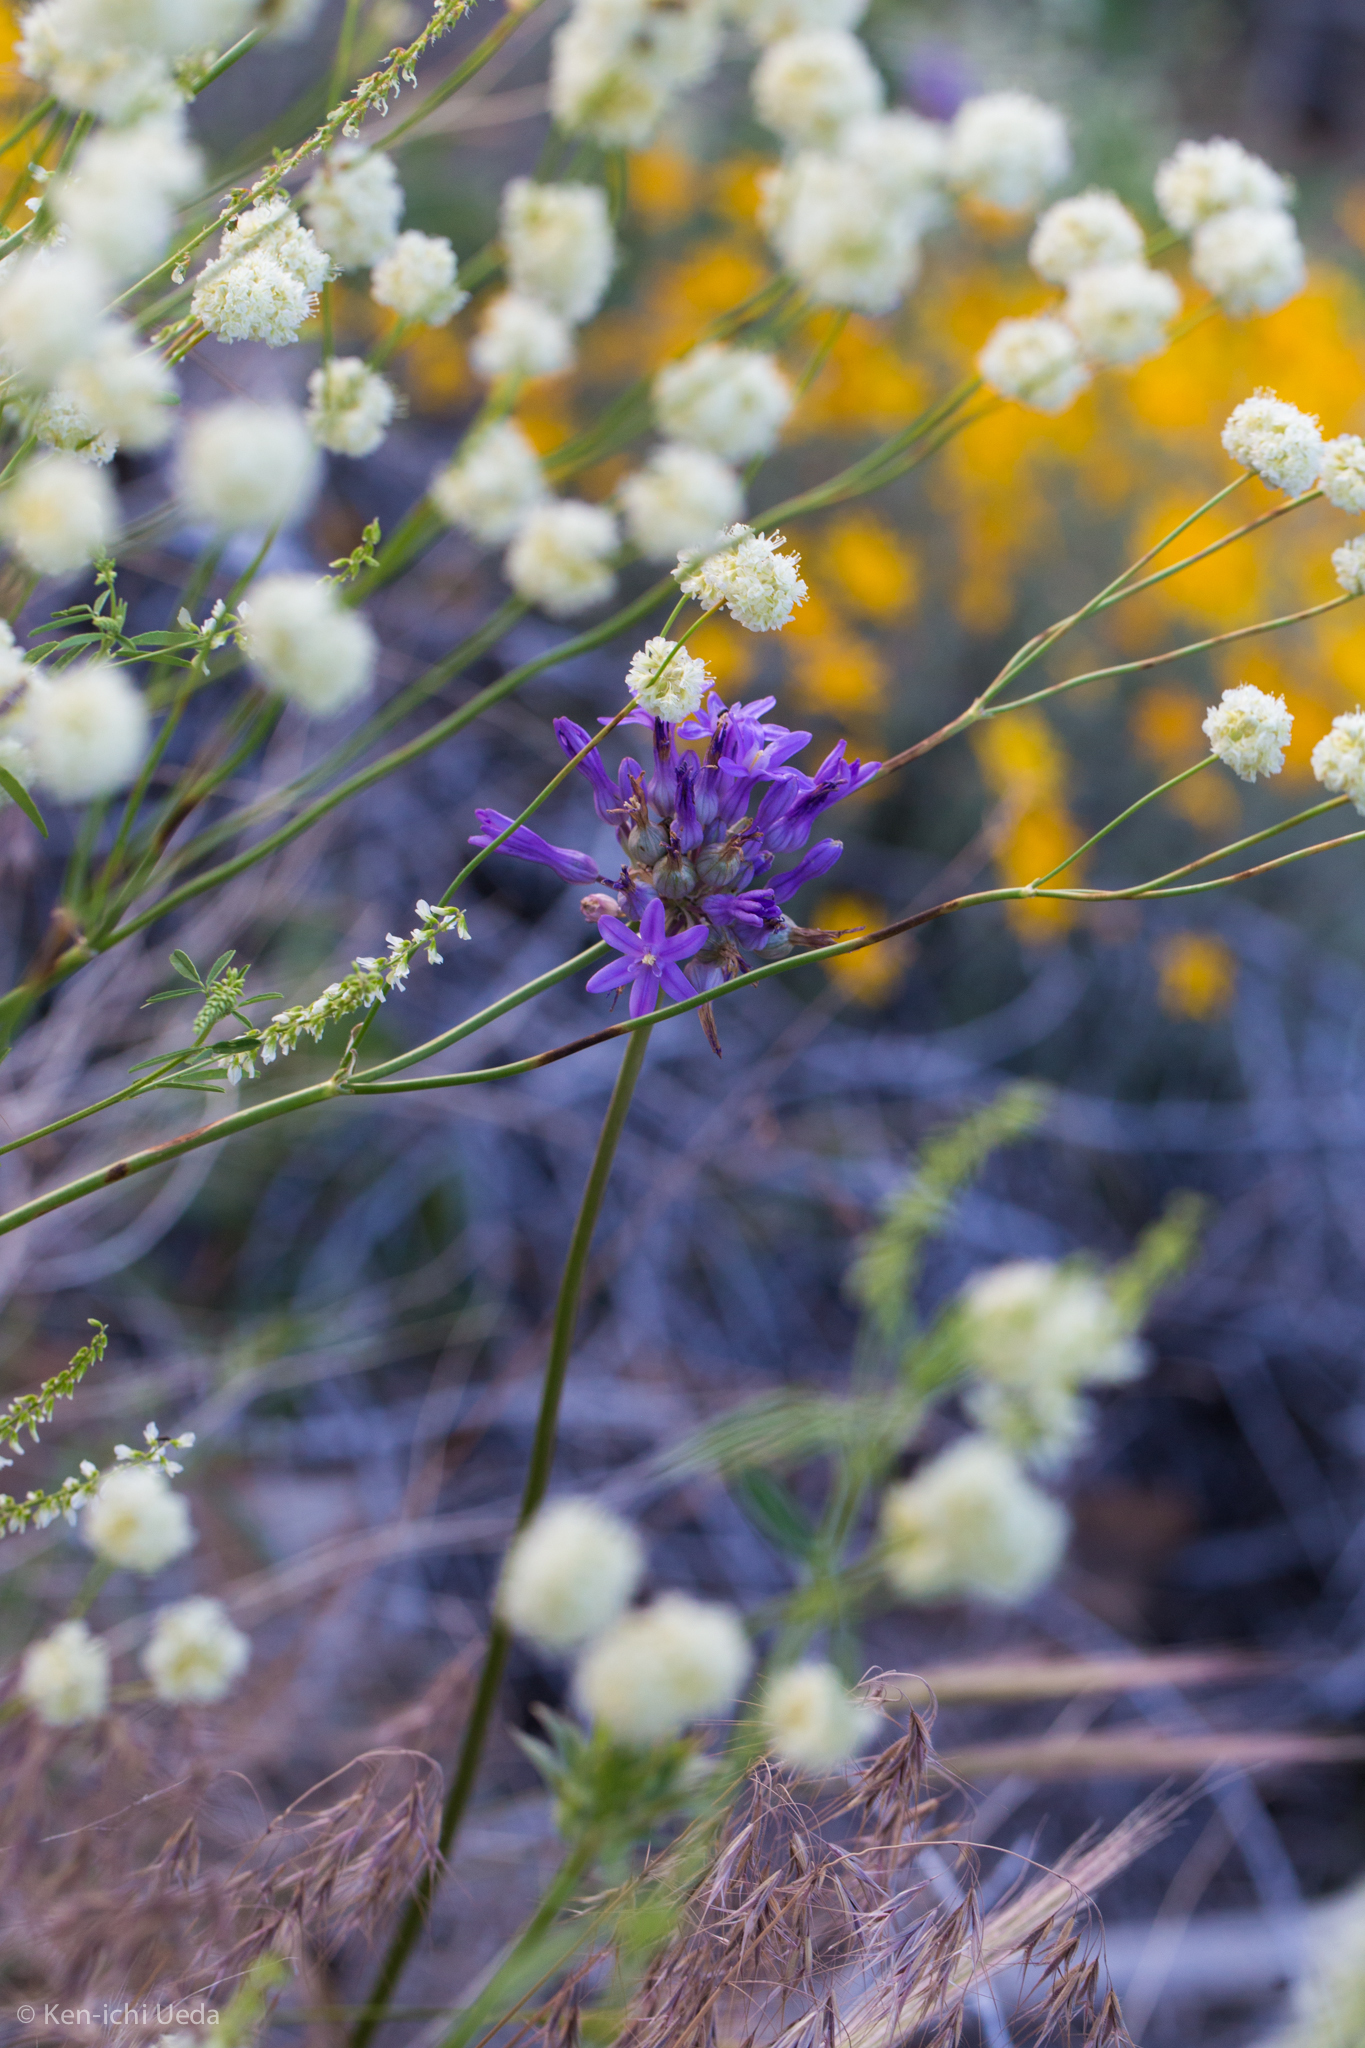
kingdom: Plantae
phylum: Tracheophyta
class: Liliopsida
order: Asparagales
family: Asparagaceae
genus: Dichelostemma
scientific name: Dichelostemma multiflorum
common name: Round-tooth ookow
